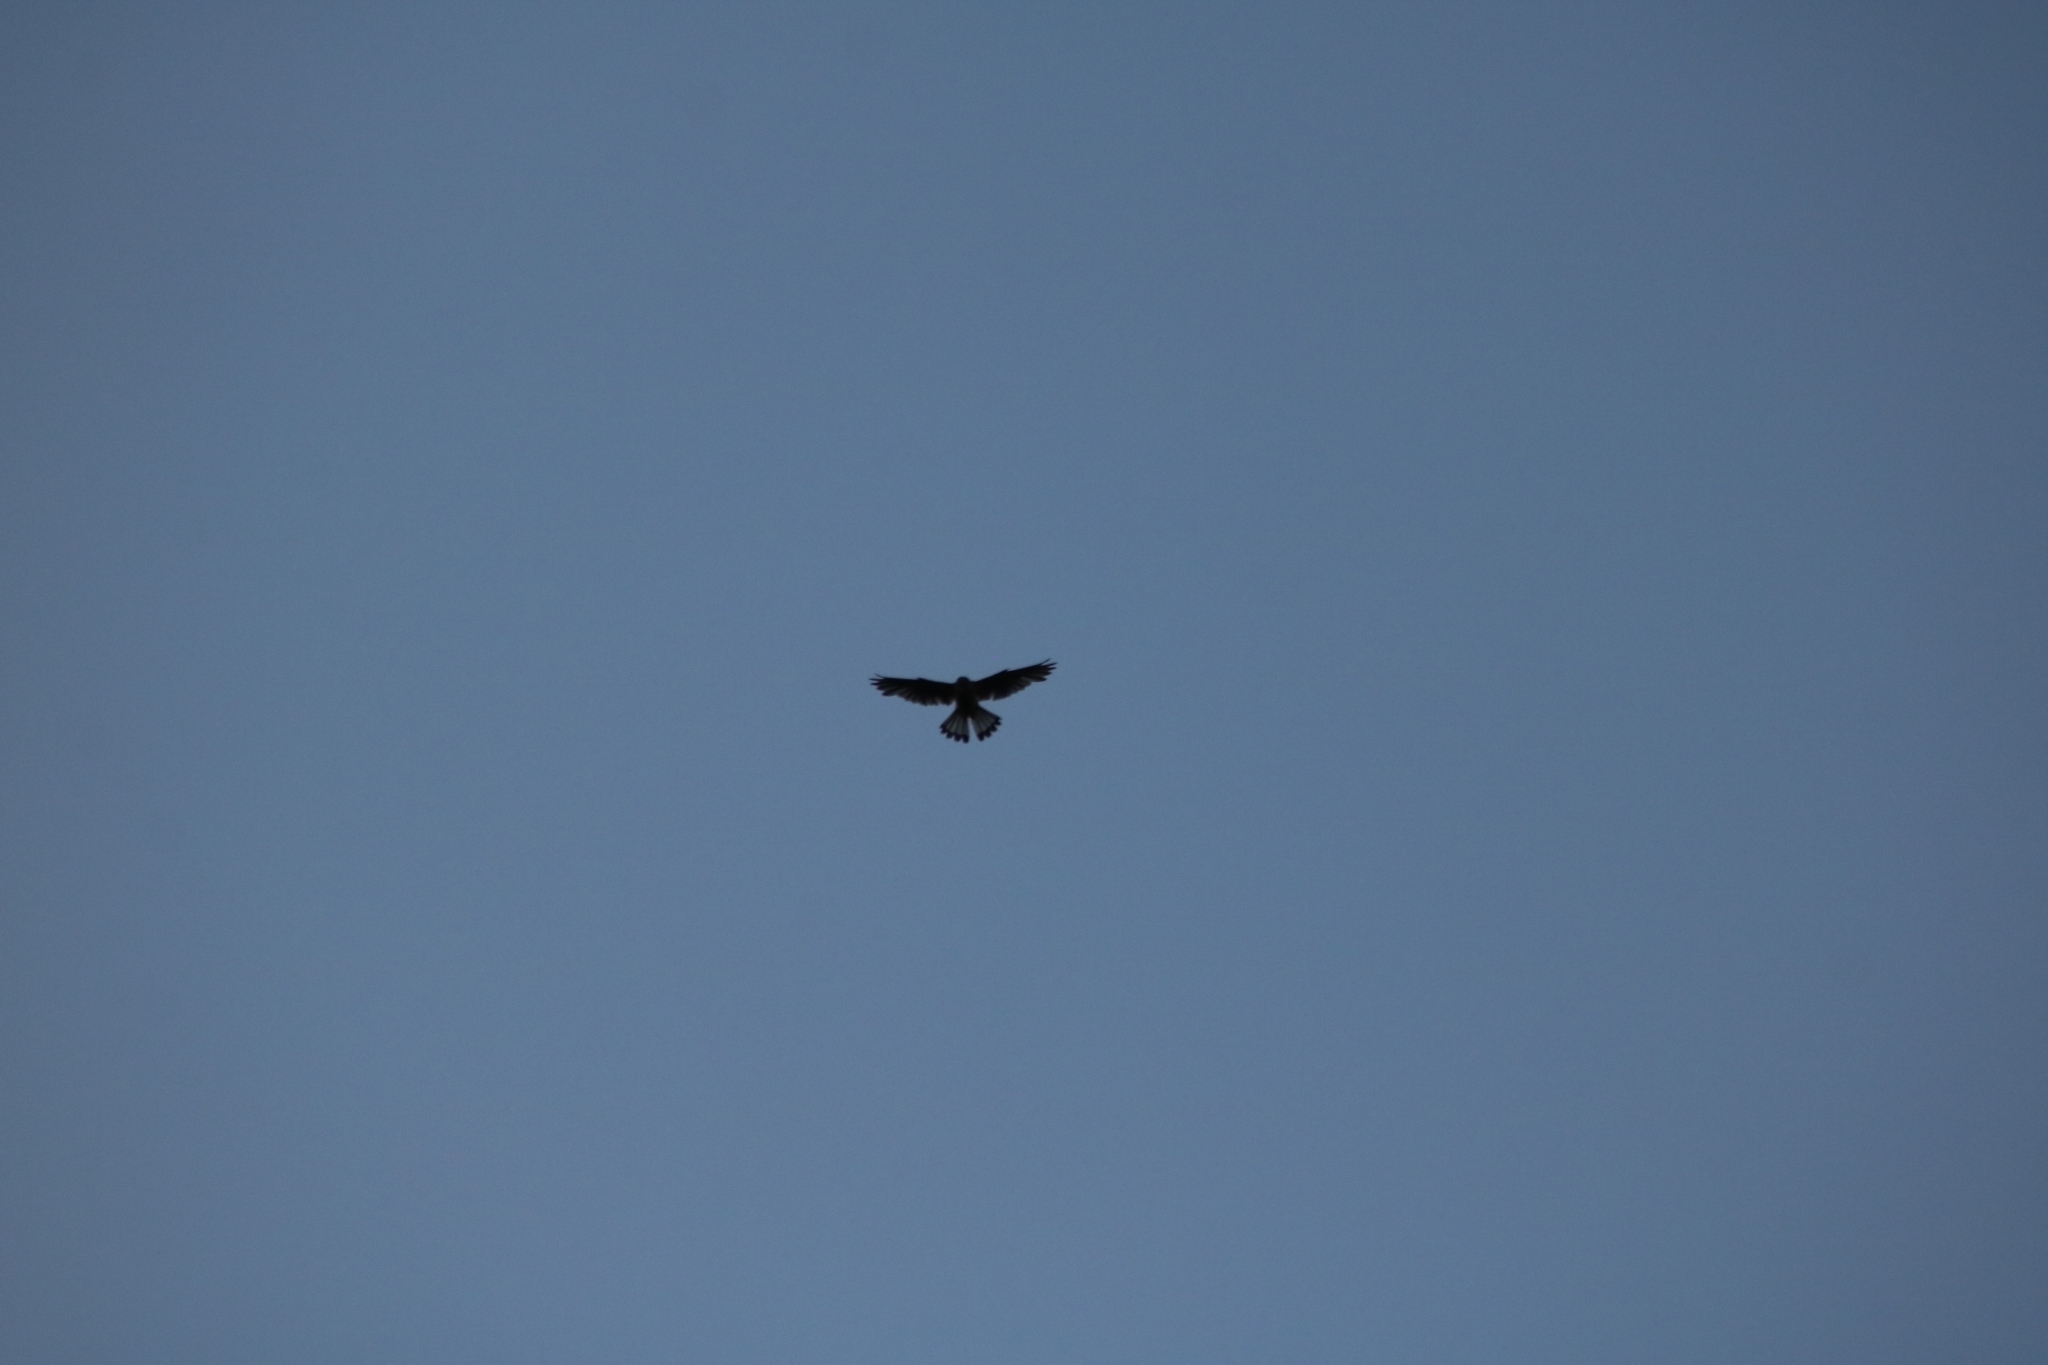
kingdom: Animalia
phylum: Chordata
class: Aves
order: Falconiformes
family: Falconidae
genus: Falco
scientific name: Falco tinnunculus
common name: Common kestrel
